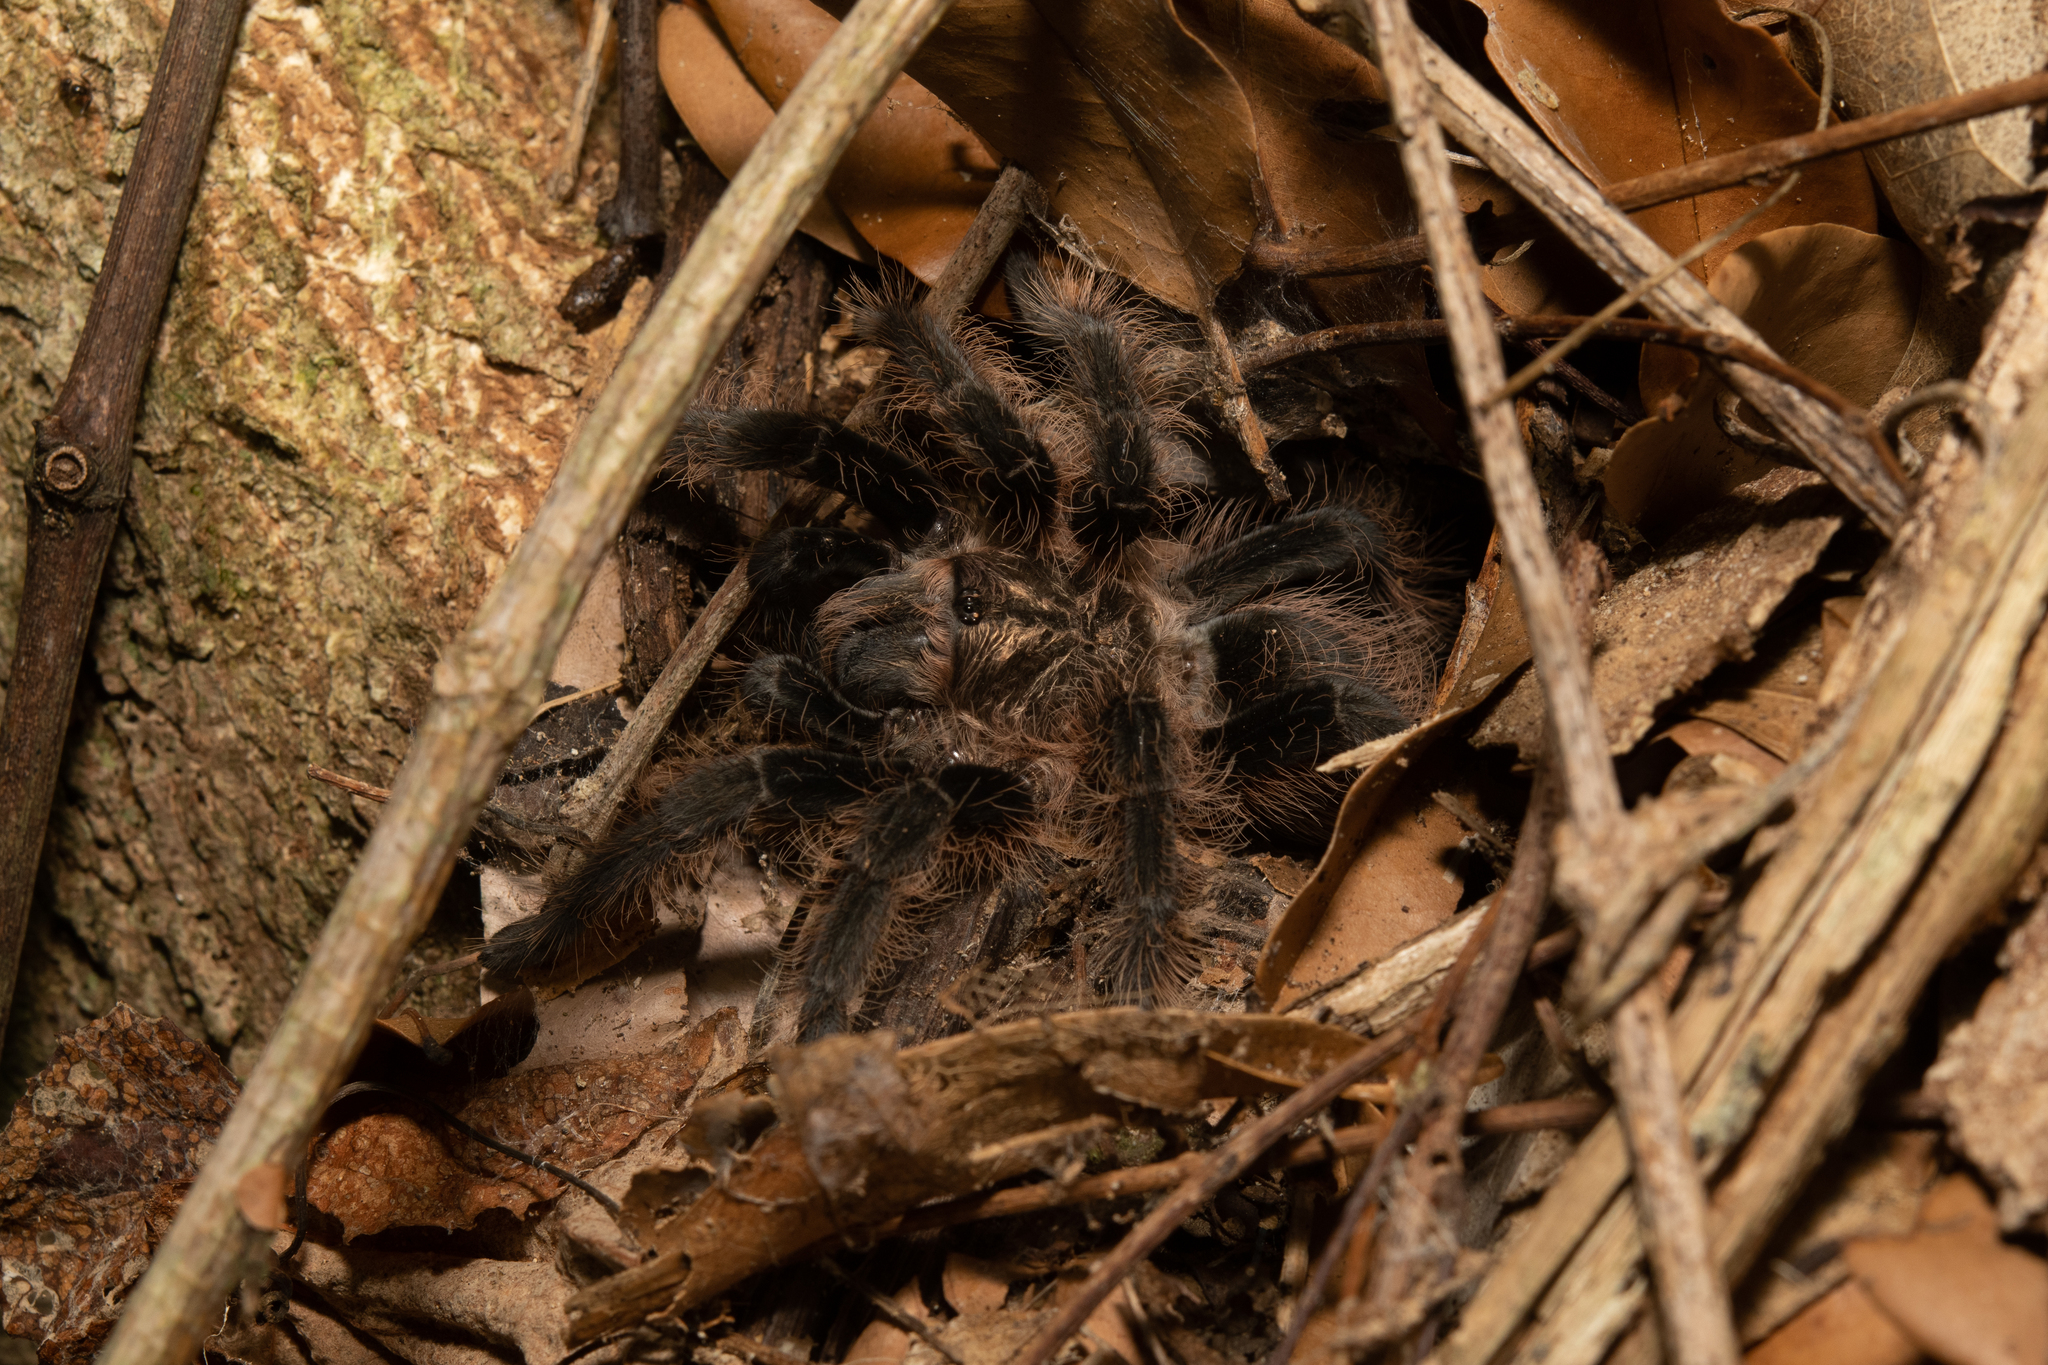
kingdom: Animalia
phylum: Arthropoda
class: Arachnida
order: Araneae
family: Theraphosidae
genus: Tliltocatl
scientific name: Tliltocatl albopilosus
